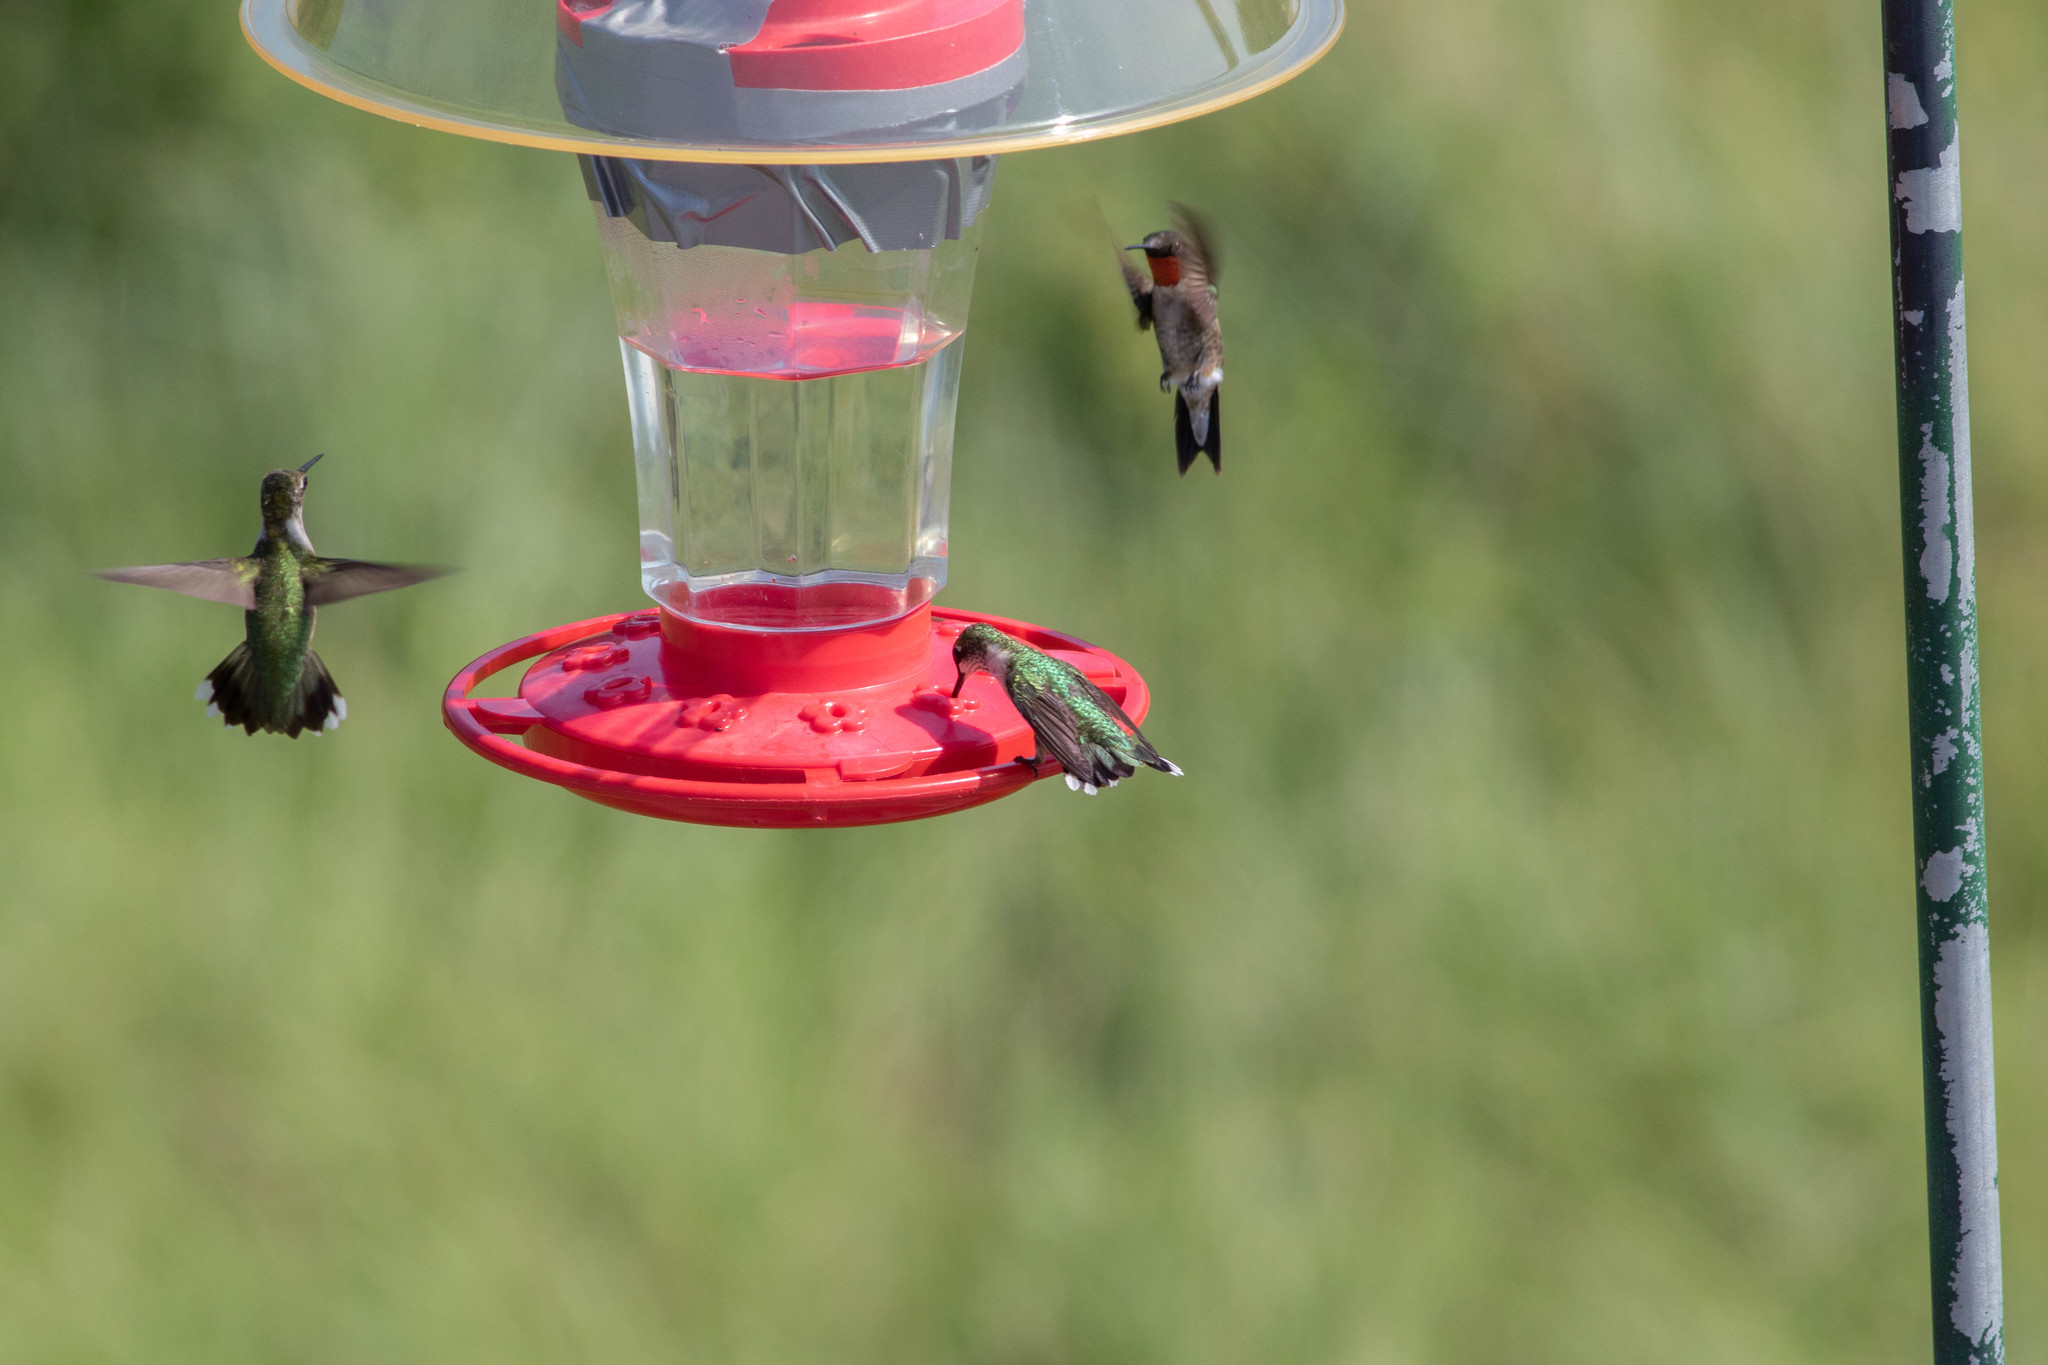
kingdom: Animalia
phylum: Chordata
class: Aves
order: Apodiformes
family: Trochilidae
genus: Archilochus
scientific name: Archilochus colubris
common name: Ruby-throated hummingbird
